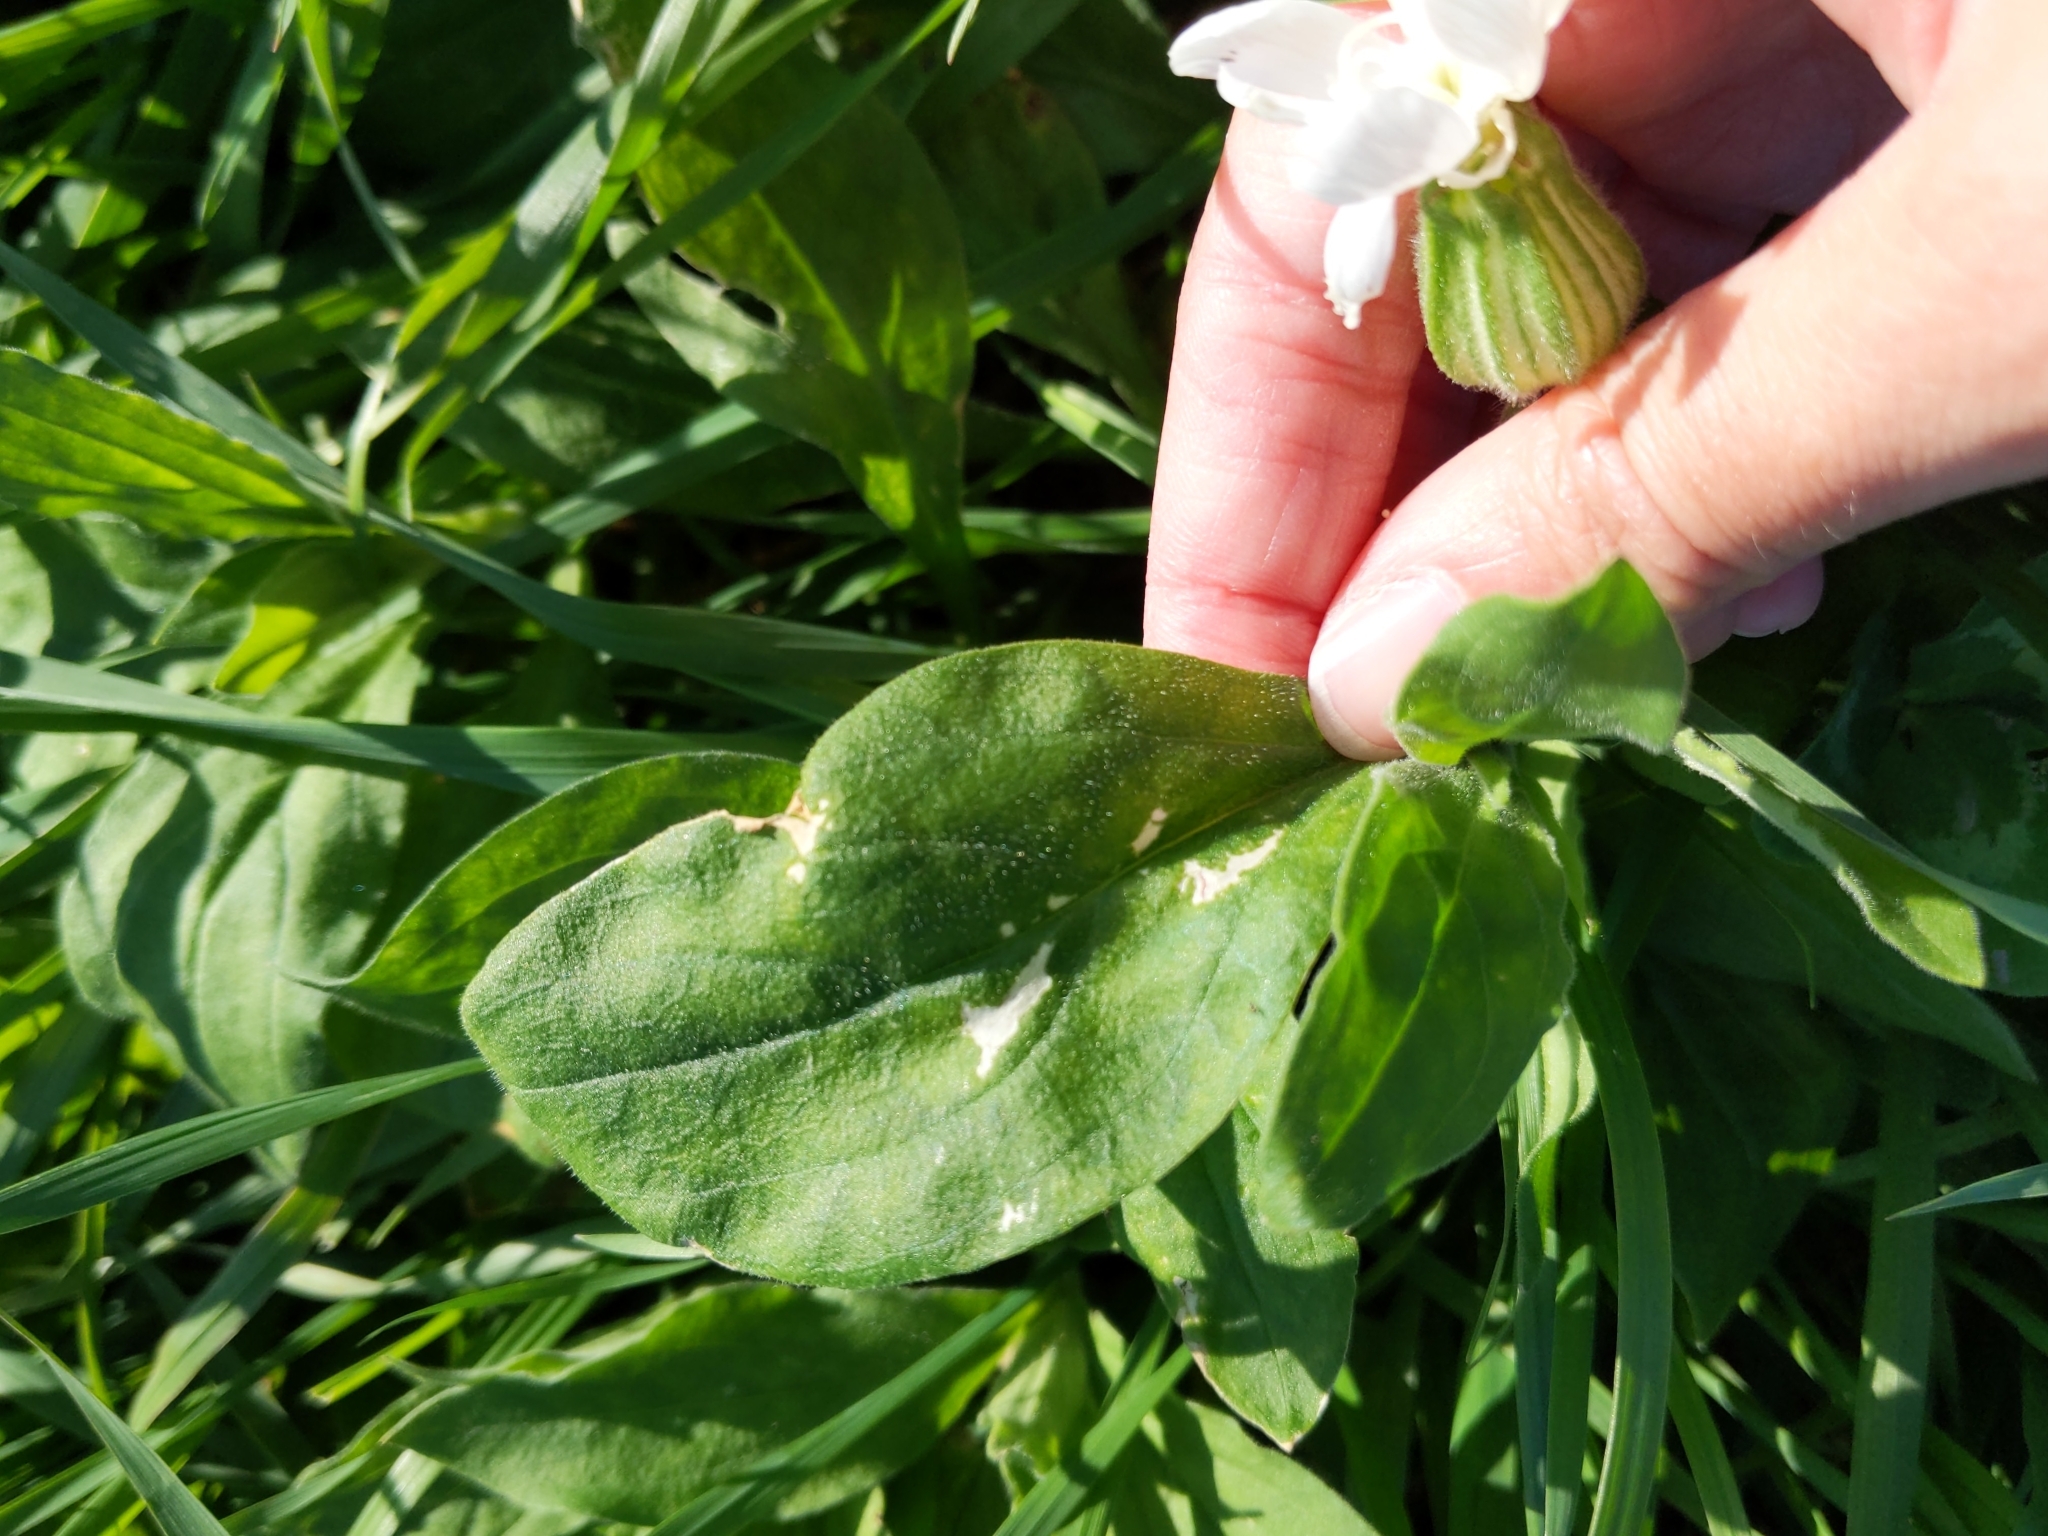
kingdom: Plantae
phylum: Tracheophyta
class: Magnoliopsida
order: Caryophyllales
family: Caryophyllaceae
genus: Silene
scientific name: Silene latifolia
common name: White campion
